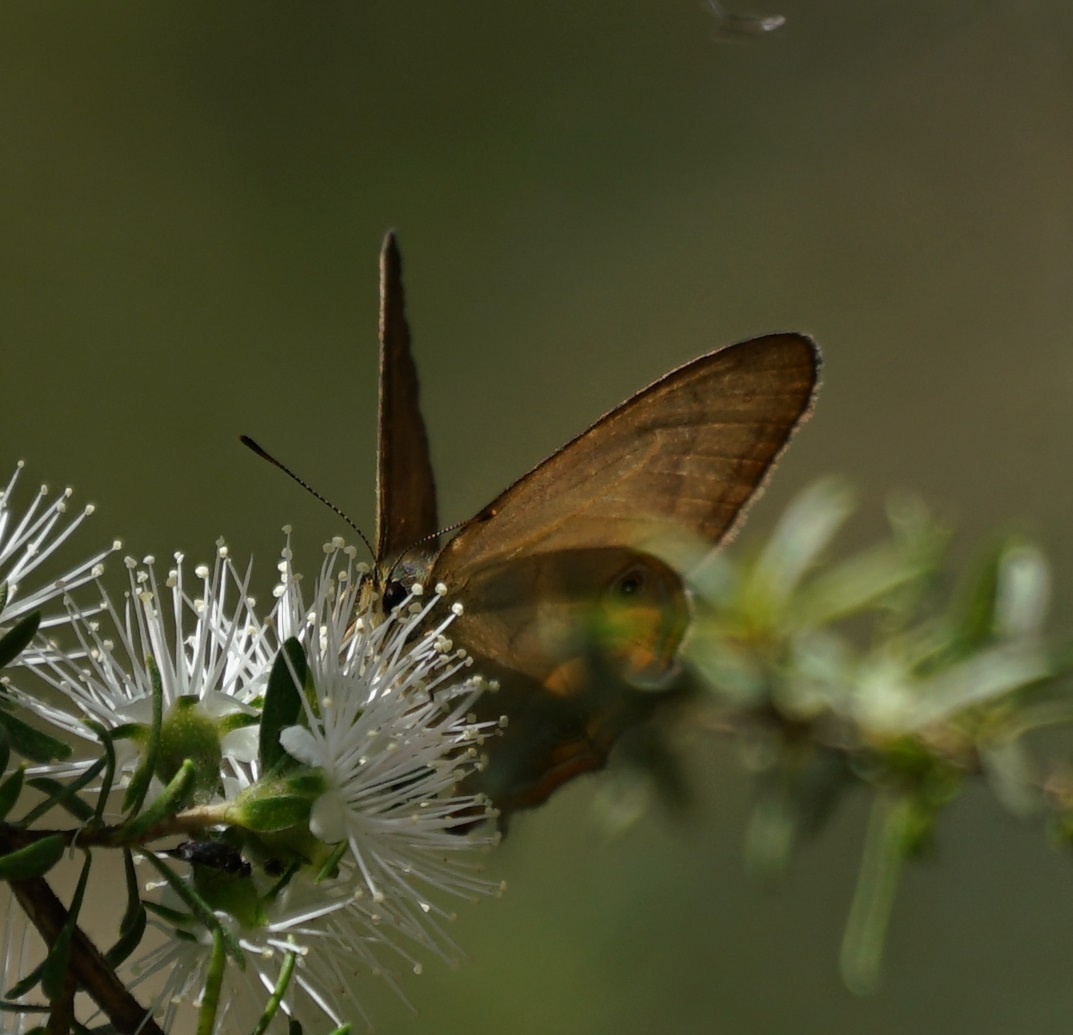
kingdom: Animalia
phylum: Arthropoda
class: Insecta
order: Lepidoptera
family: Nymphalidae
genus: Hypocysta
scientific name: Hypocysta metirius
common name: Brown ringlet
